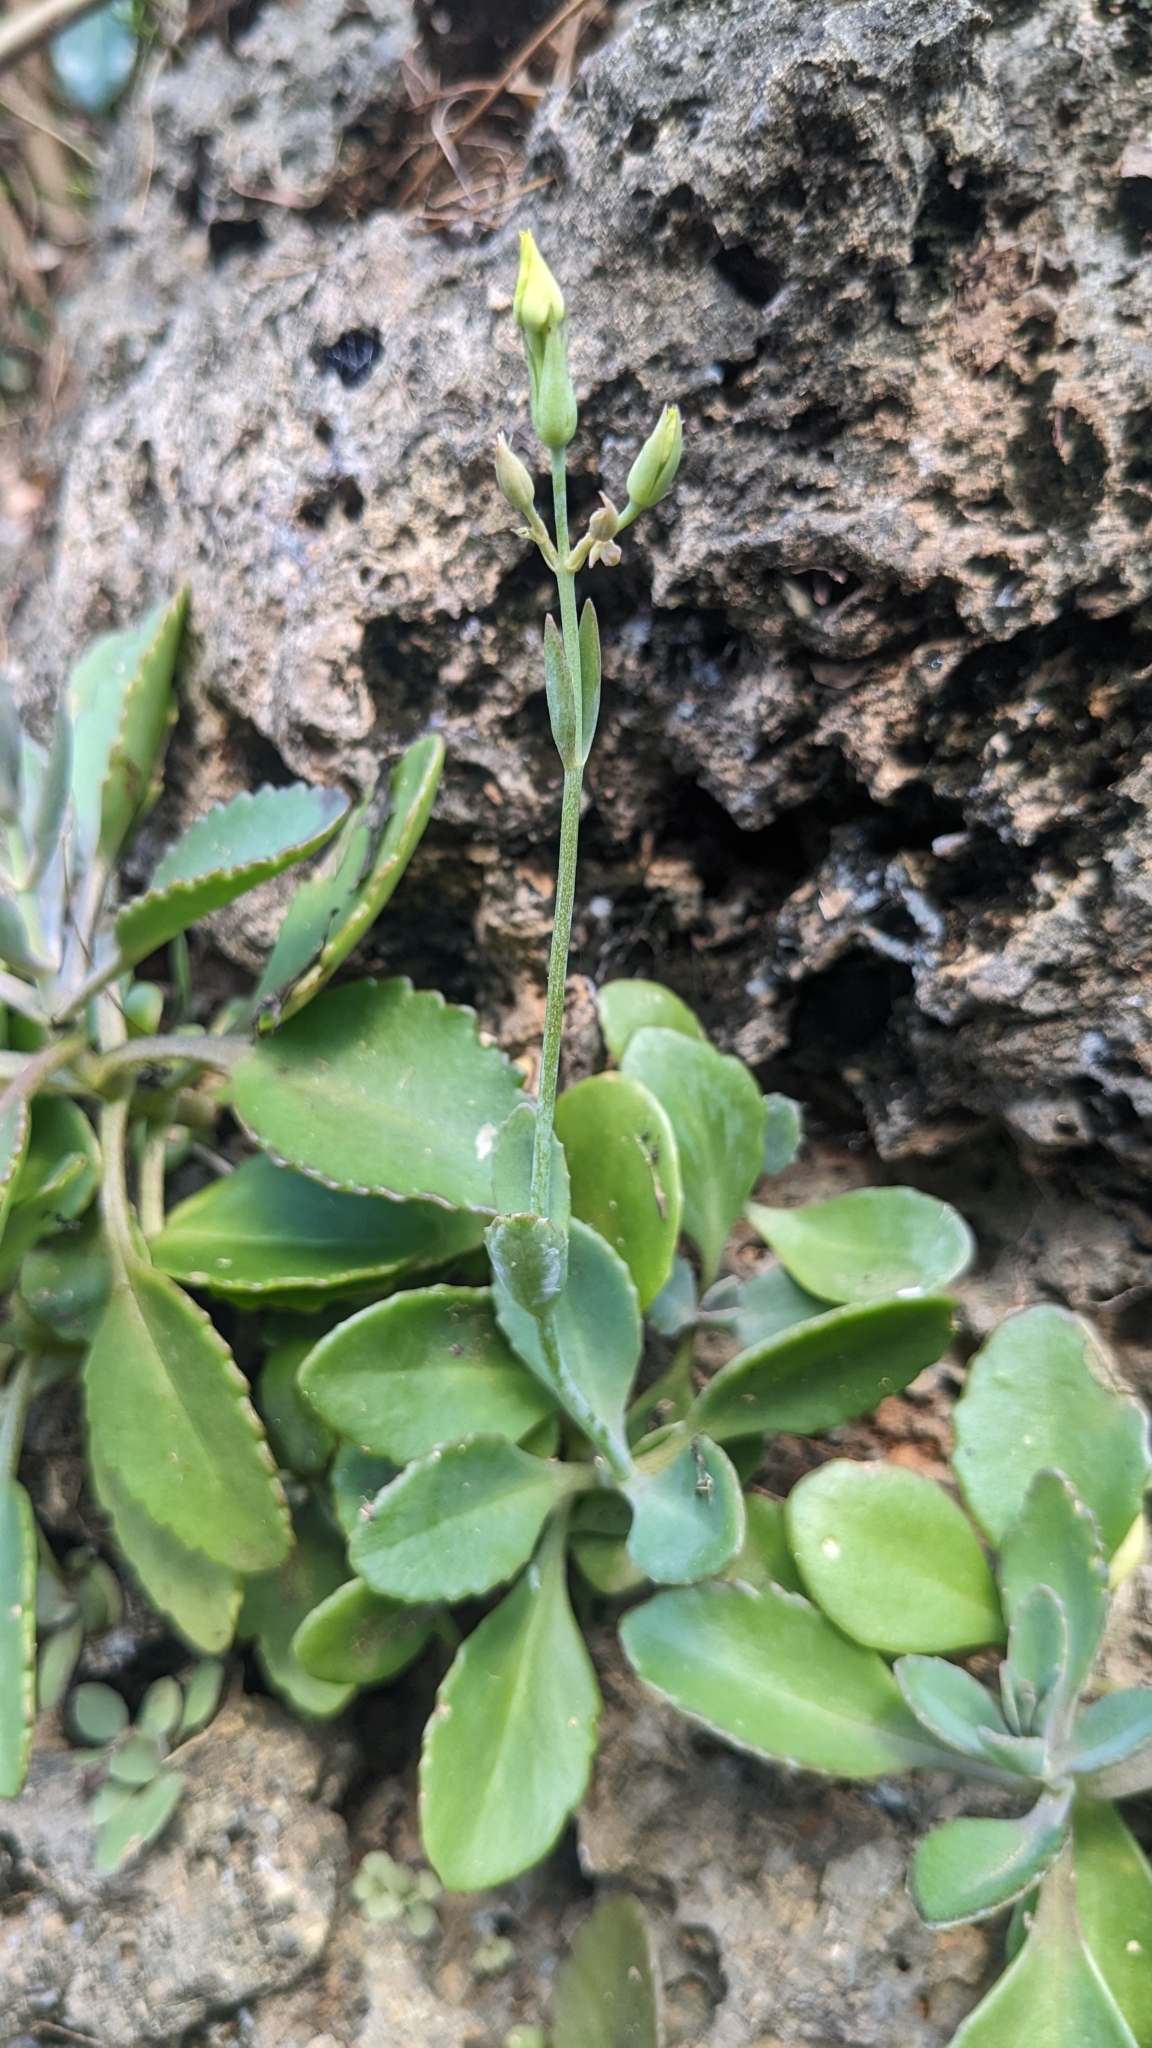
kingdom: Plantae
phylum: Tracheophyta
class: Magnoliopsida
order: Saxifragales
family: Crassulaceae
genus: Kalanchoe
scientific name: Kalanchoe integra
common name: Neverdie
